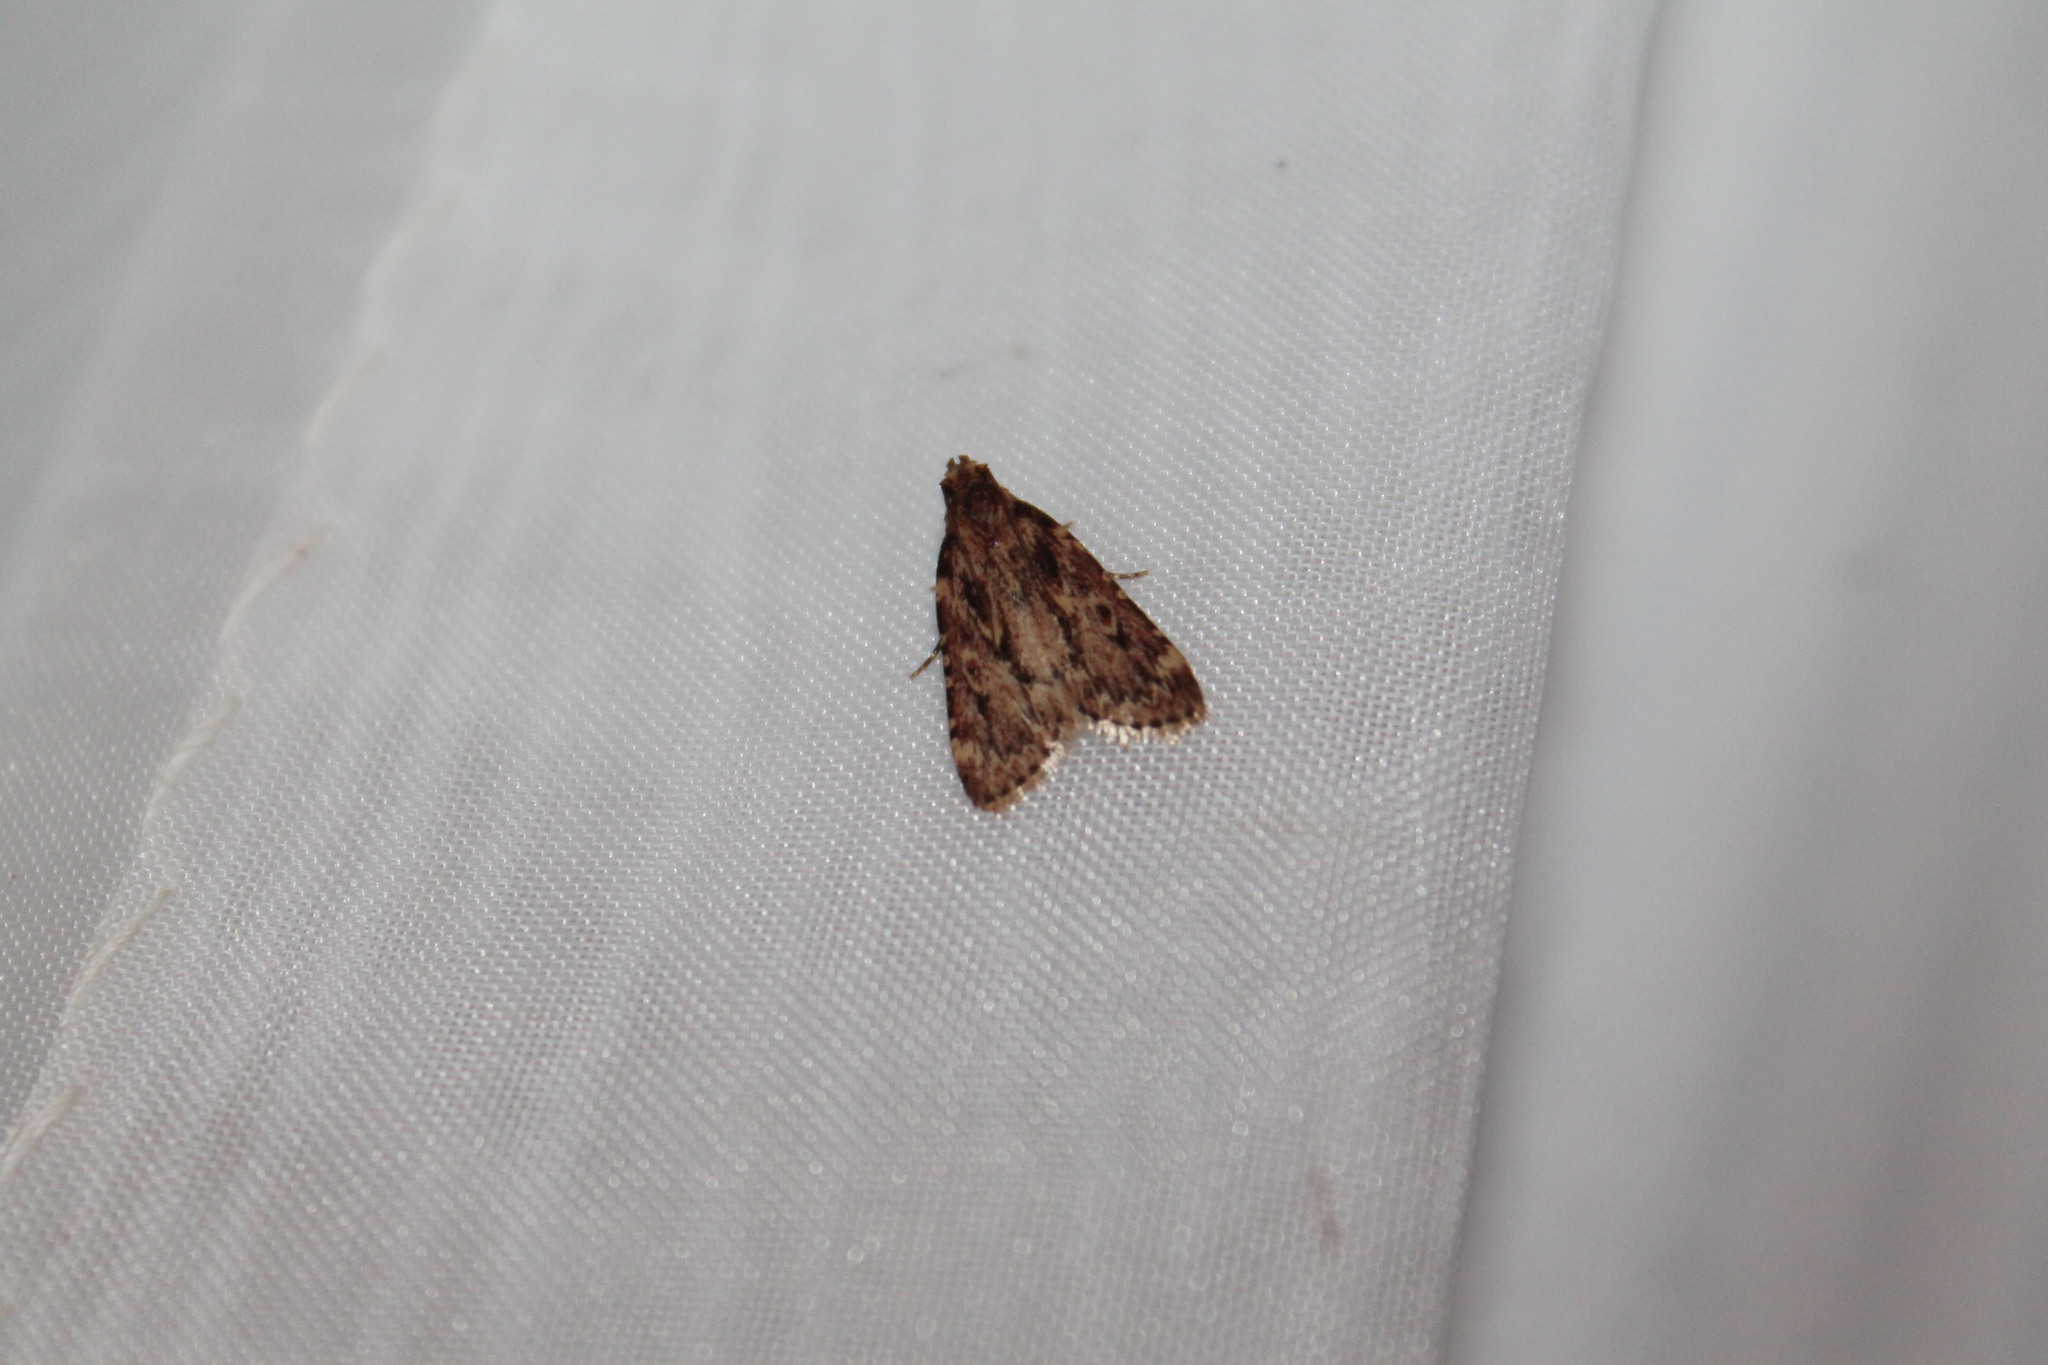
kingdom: Animalia
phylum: Arthropoda
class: Insecta
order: Lepidoptera
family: Pyralidae
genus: Aglossa
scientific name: Aglossa cuprina
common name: Grease moth
